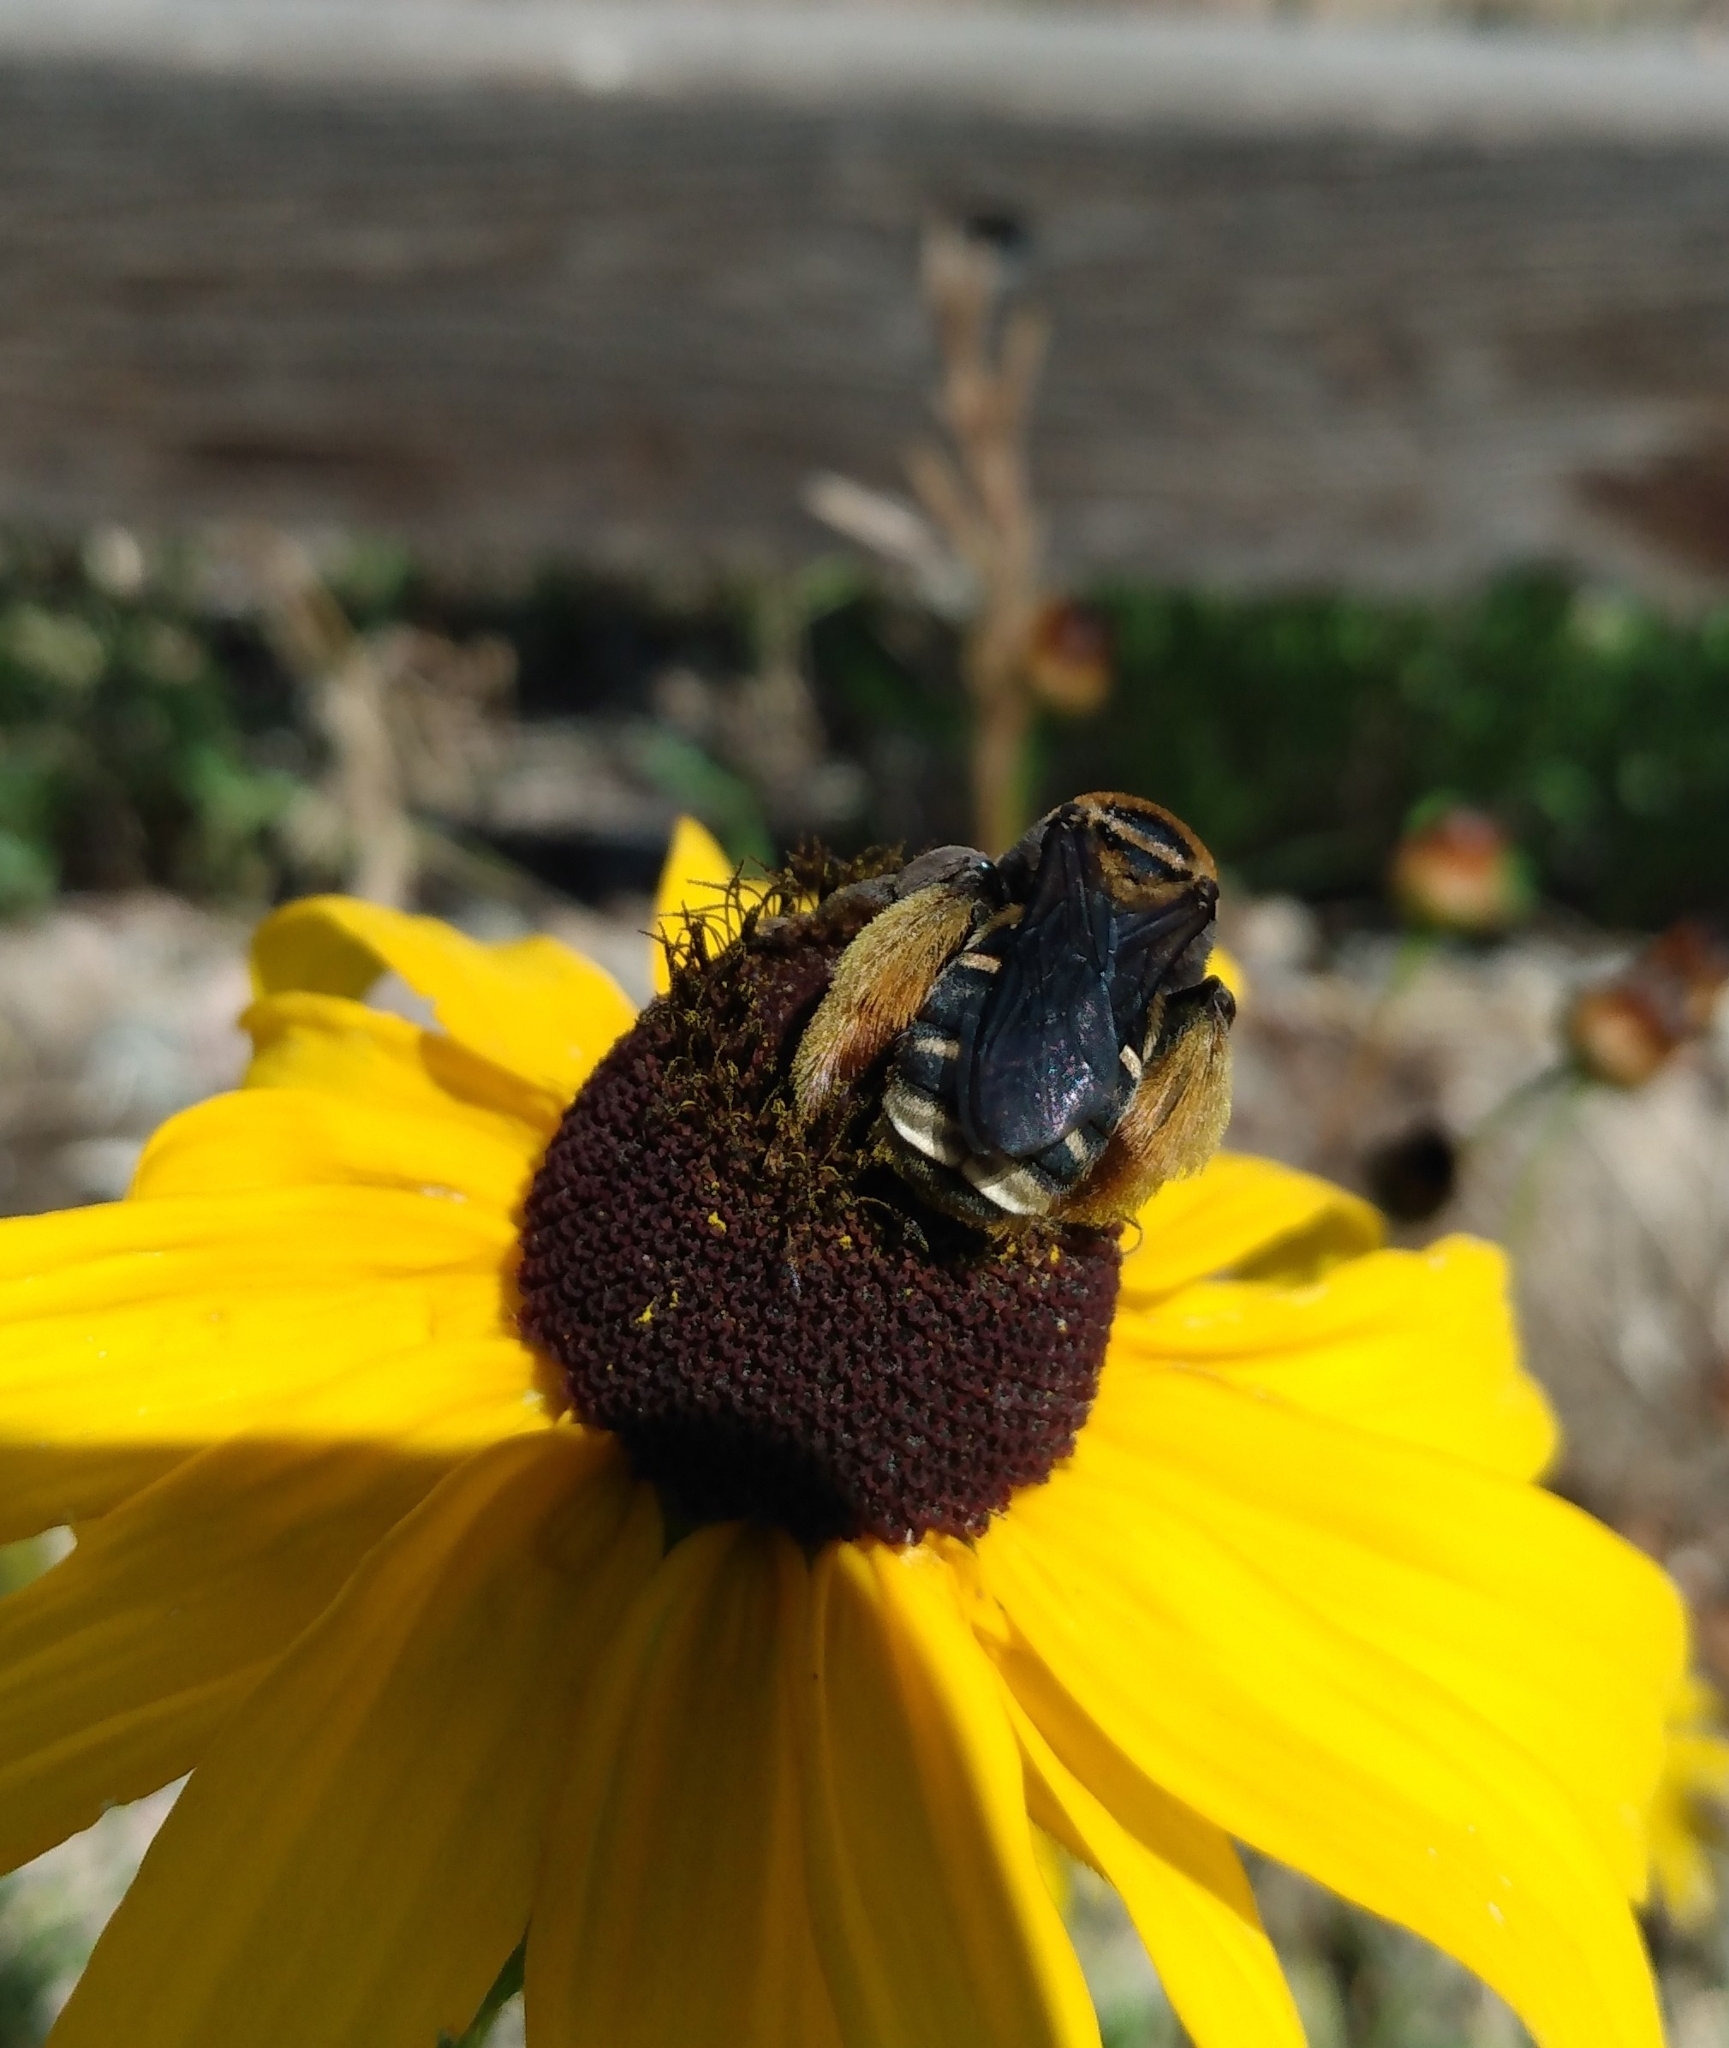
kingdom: Animalia
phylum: Arthropoda
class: Insecta
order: Hymenoptera
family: Apidae
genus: Svastra
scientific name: Svastra obliqua
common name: Oblique longhorn
